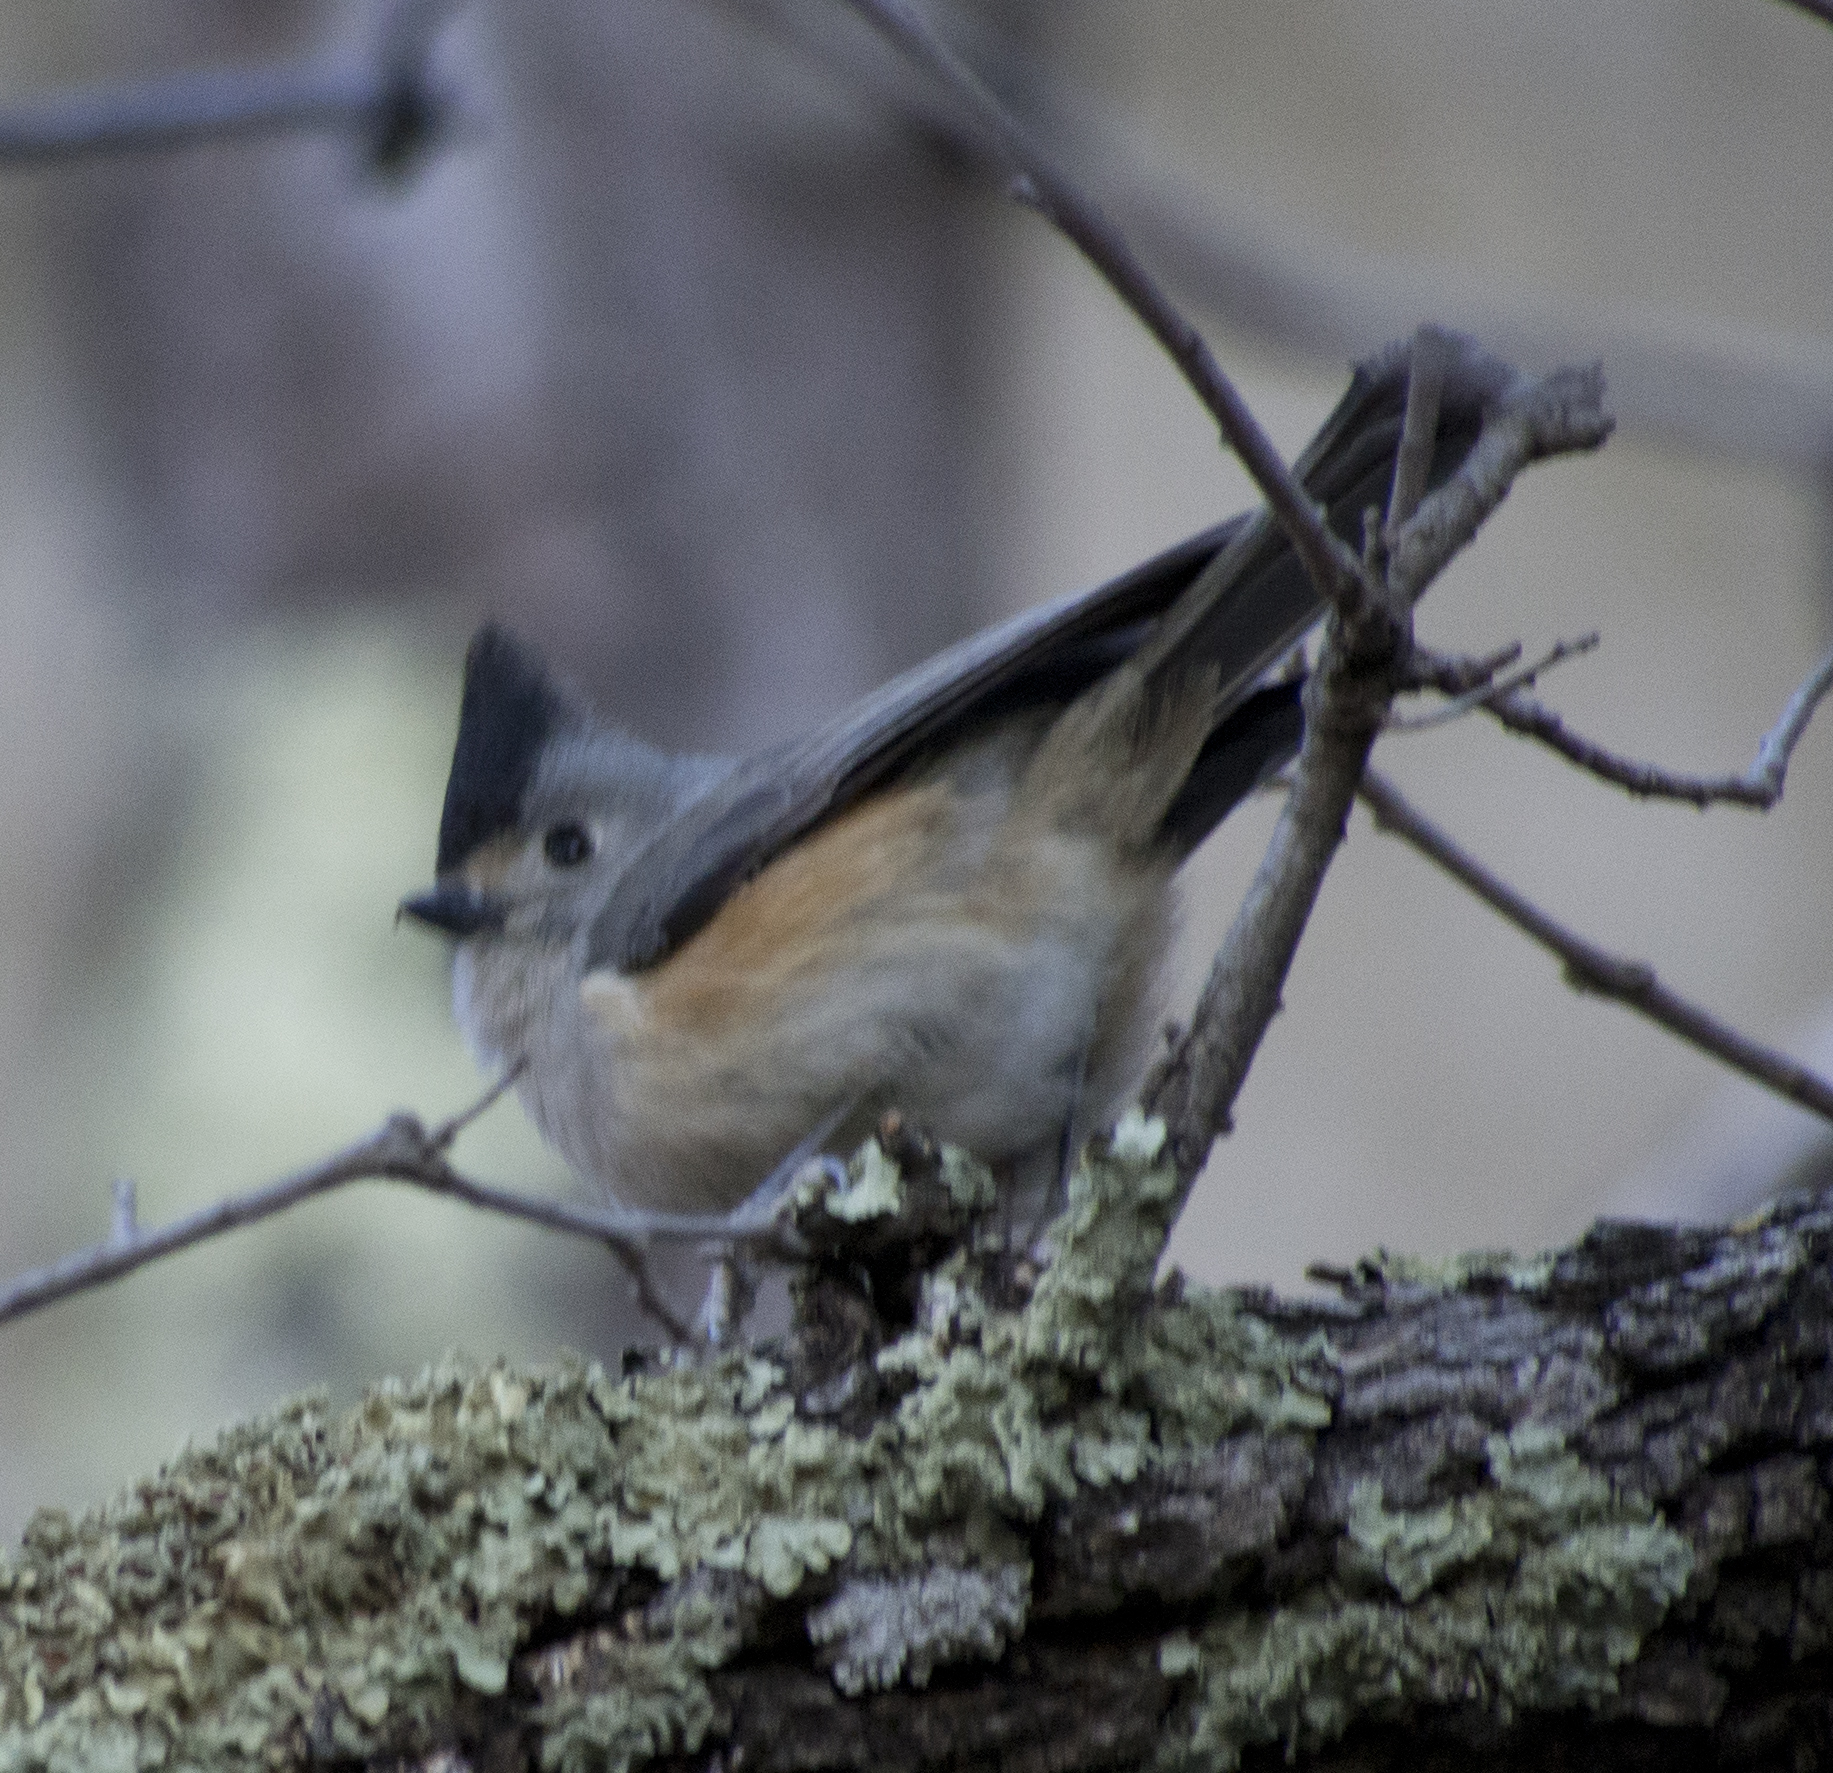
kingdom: Animalia
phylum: Chordata
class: Aves
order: Passeriformes
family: Paridae
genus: Baeolophus
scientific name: Baeolophus atricristatus
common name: Black-crested titmouse
